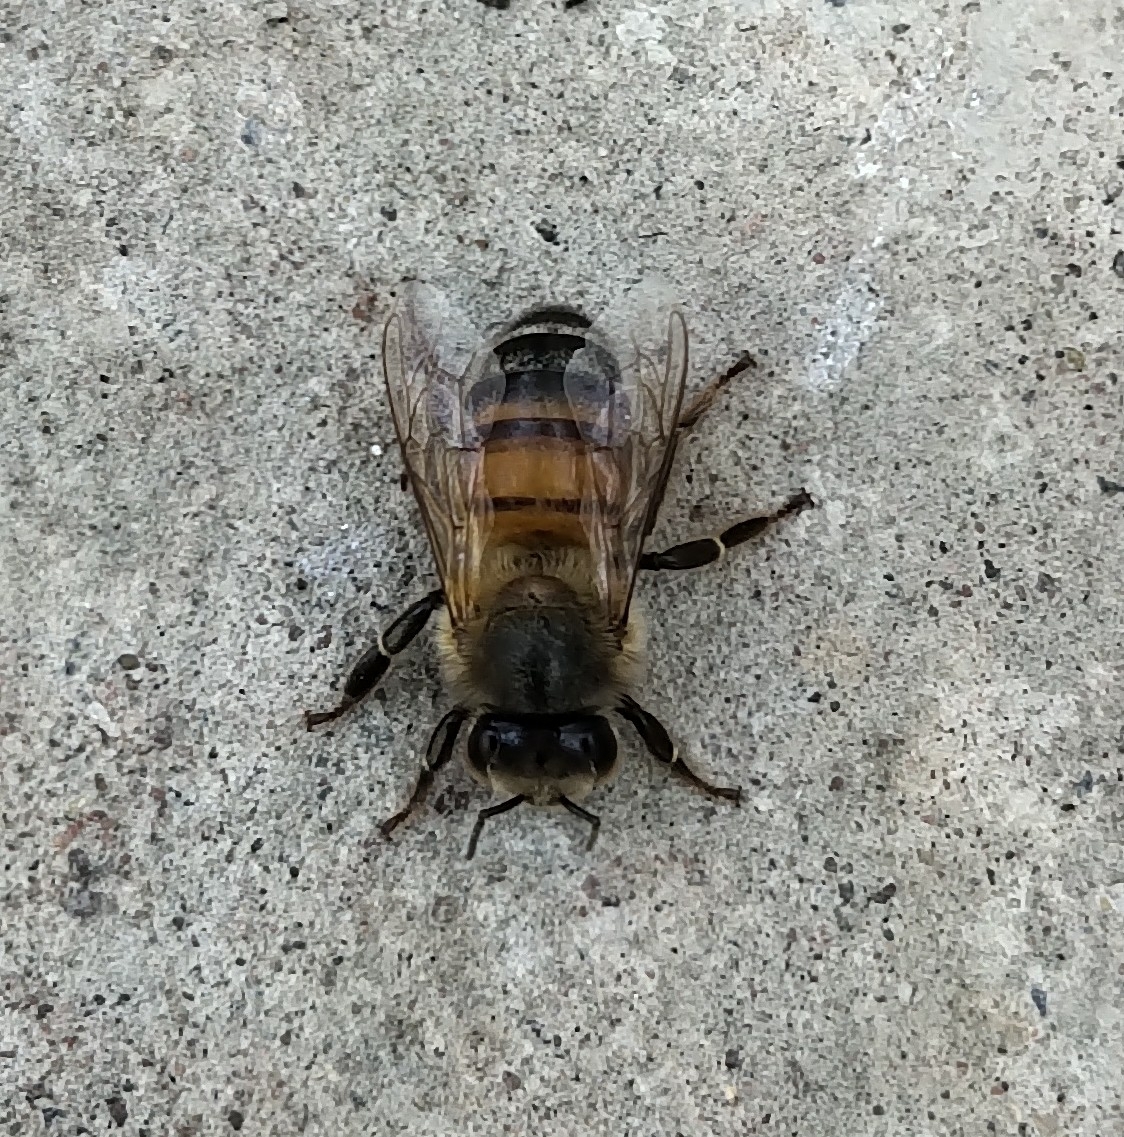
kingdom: Animalia
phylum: Arthropoda
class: Insecta
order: Hymenoptera
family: Apidae
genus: Apis
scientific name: Apis mellifera
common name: Honey bee
